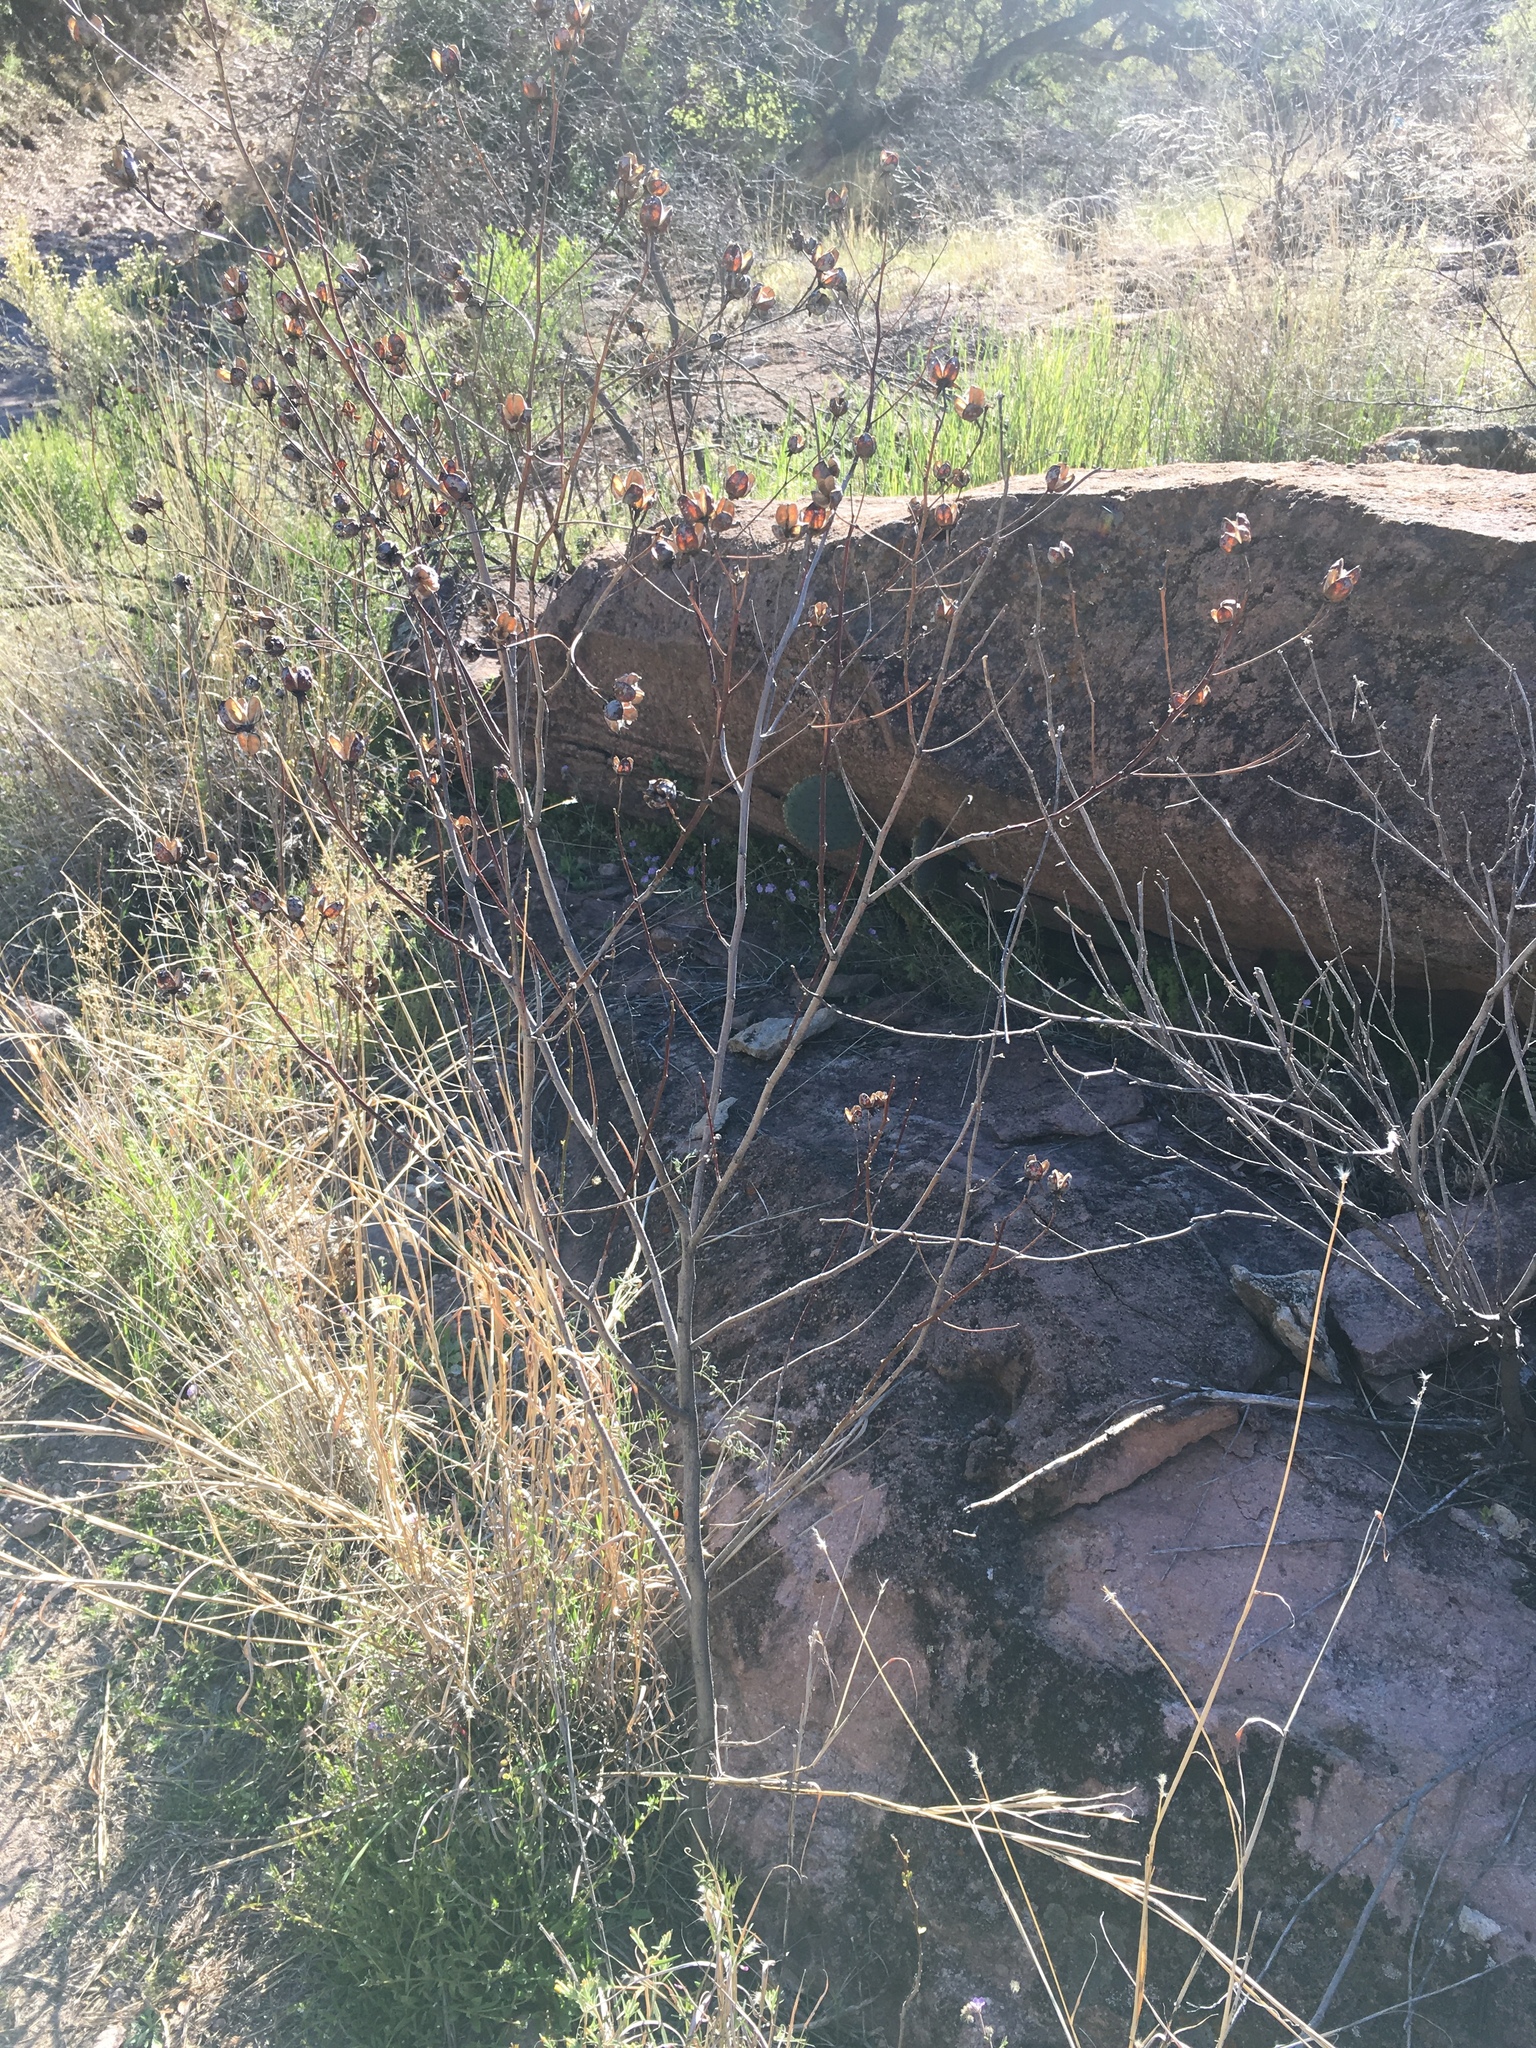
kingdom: Plantae
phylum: Tracheophyta
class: Magnoliopsida
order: Malvales
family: Malvaceae
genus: Gossypium
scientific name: Gossypium thurberi
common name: Desert cotton
